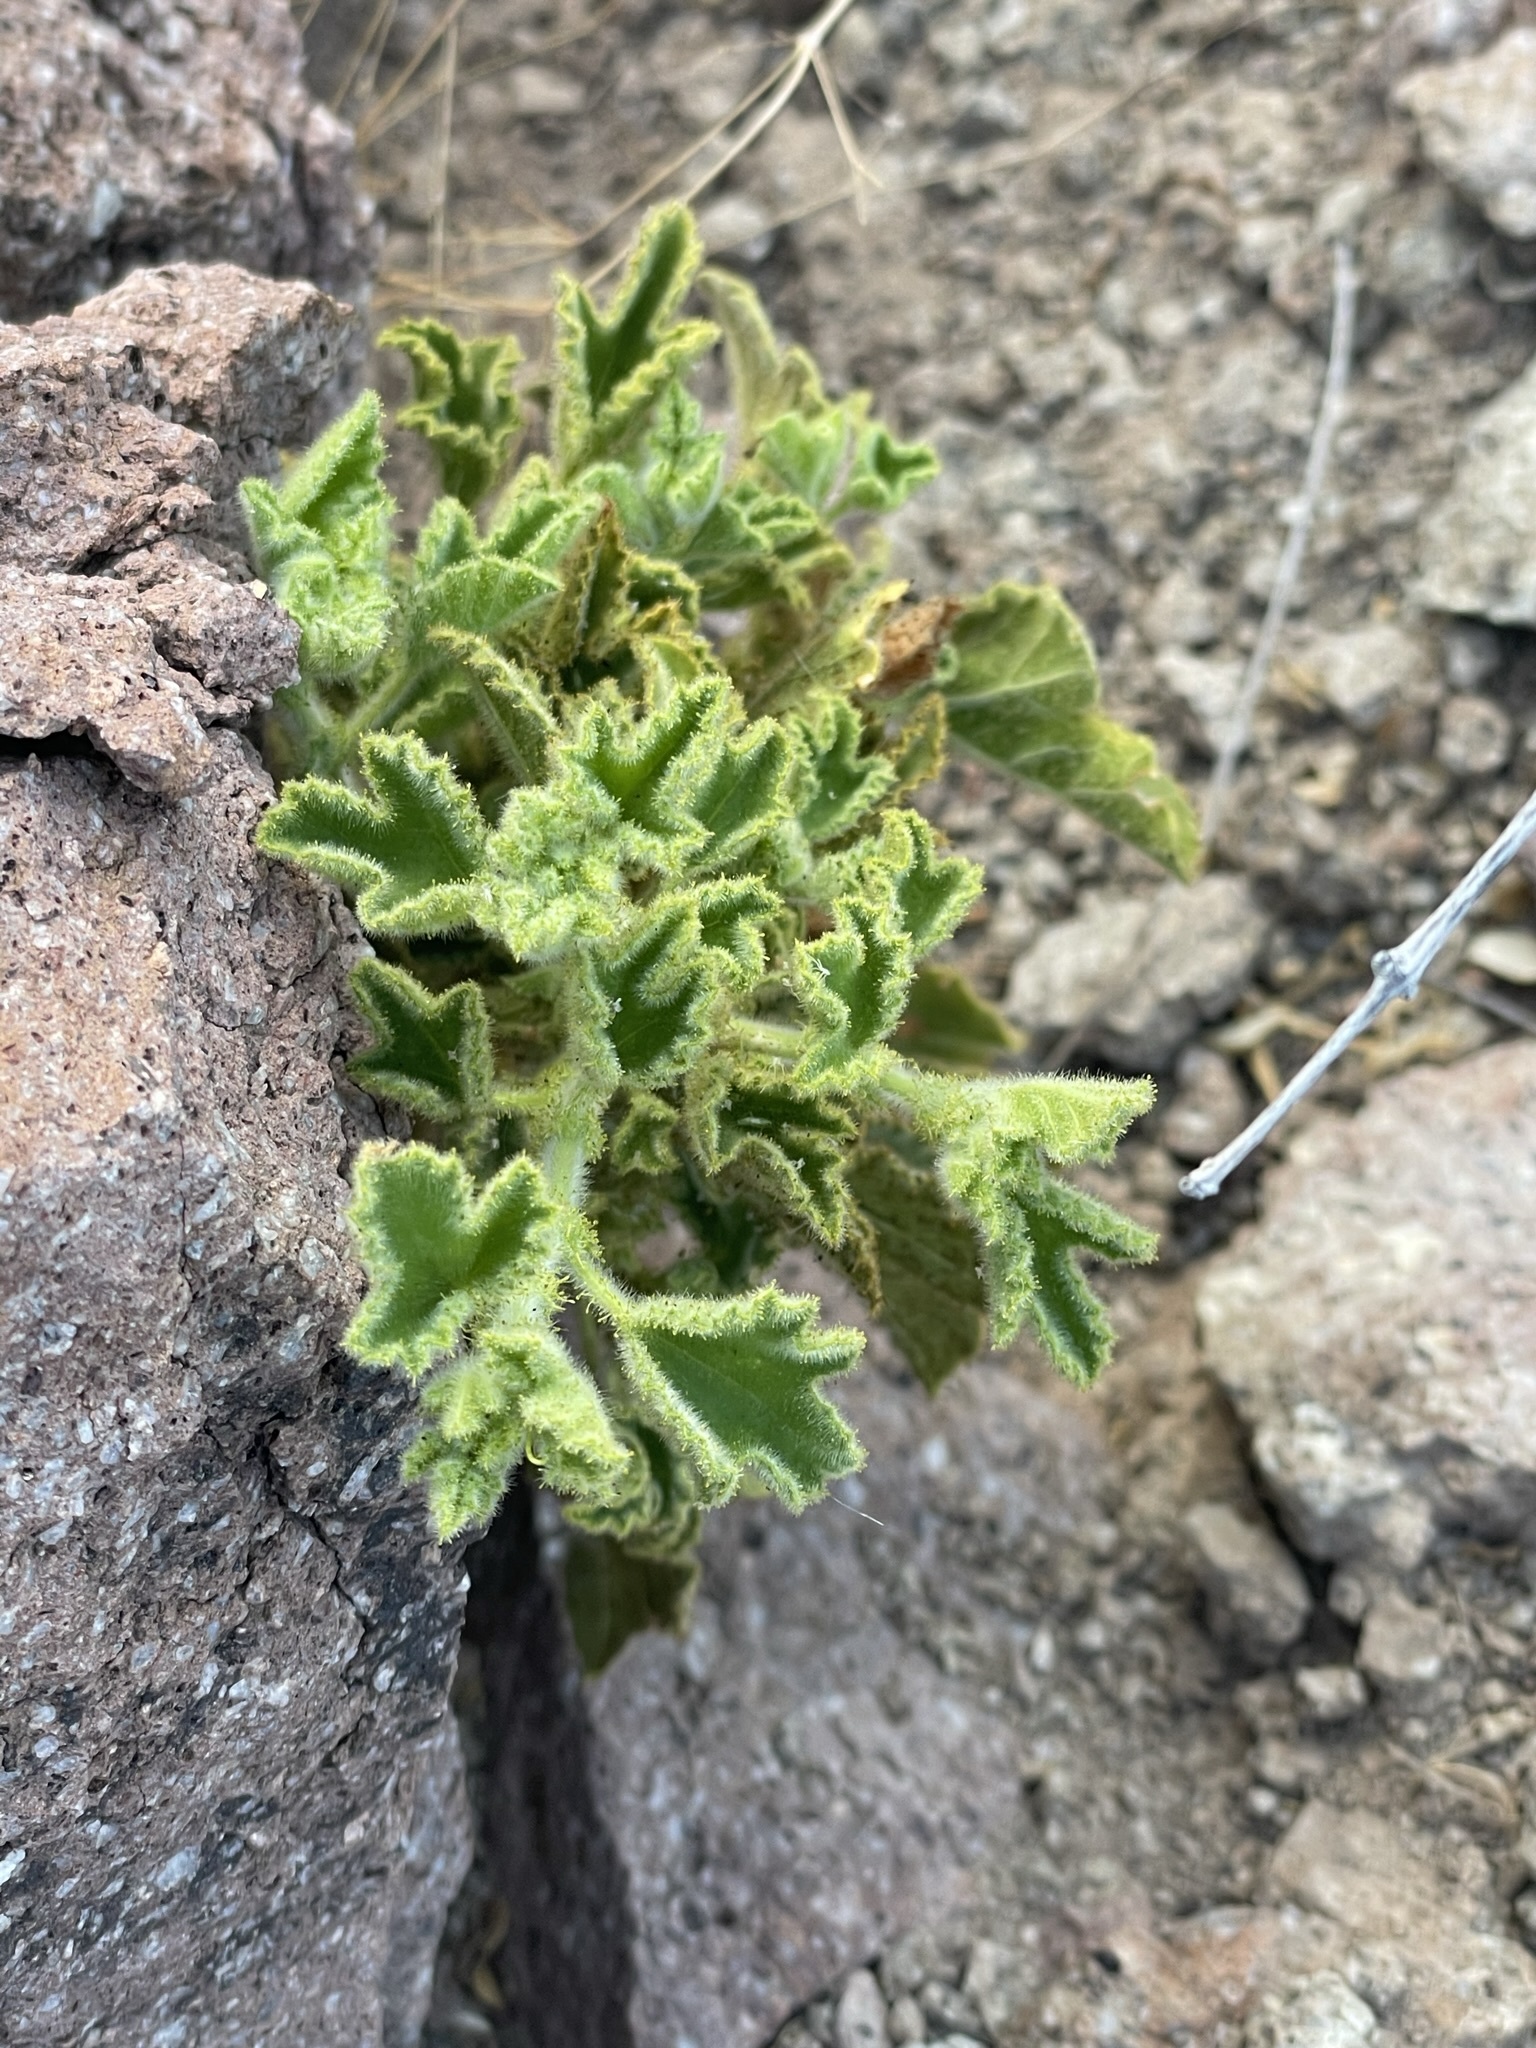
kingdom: Plantae
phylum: Tracheophyta
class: Magnoliopsida
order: Malpighiales
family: Passifloraceae
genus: Passiflora
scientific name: Passiflora palmeri
